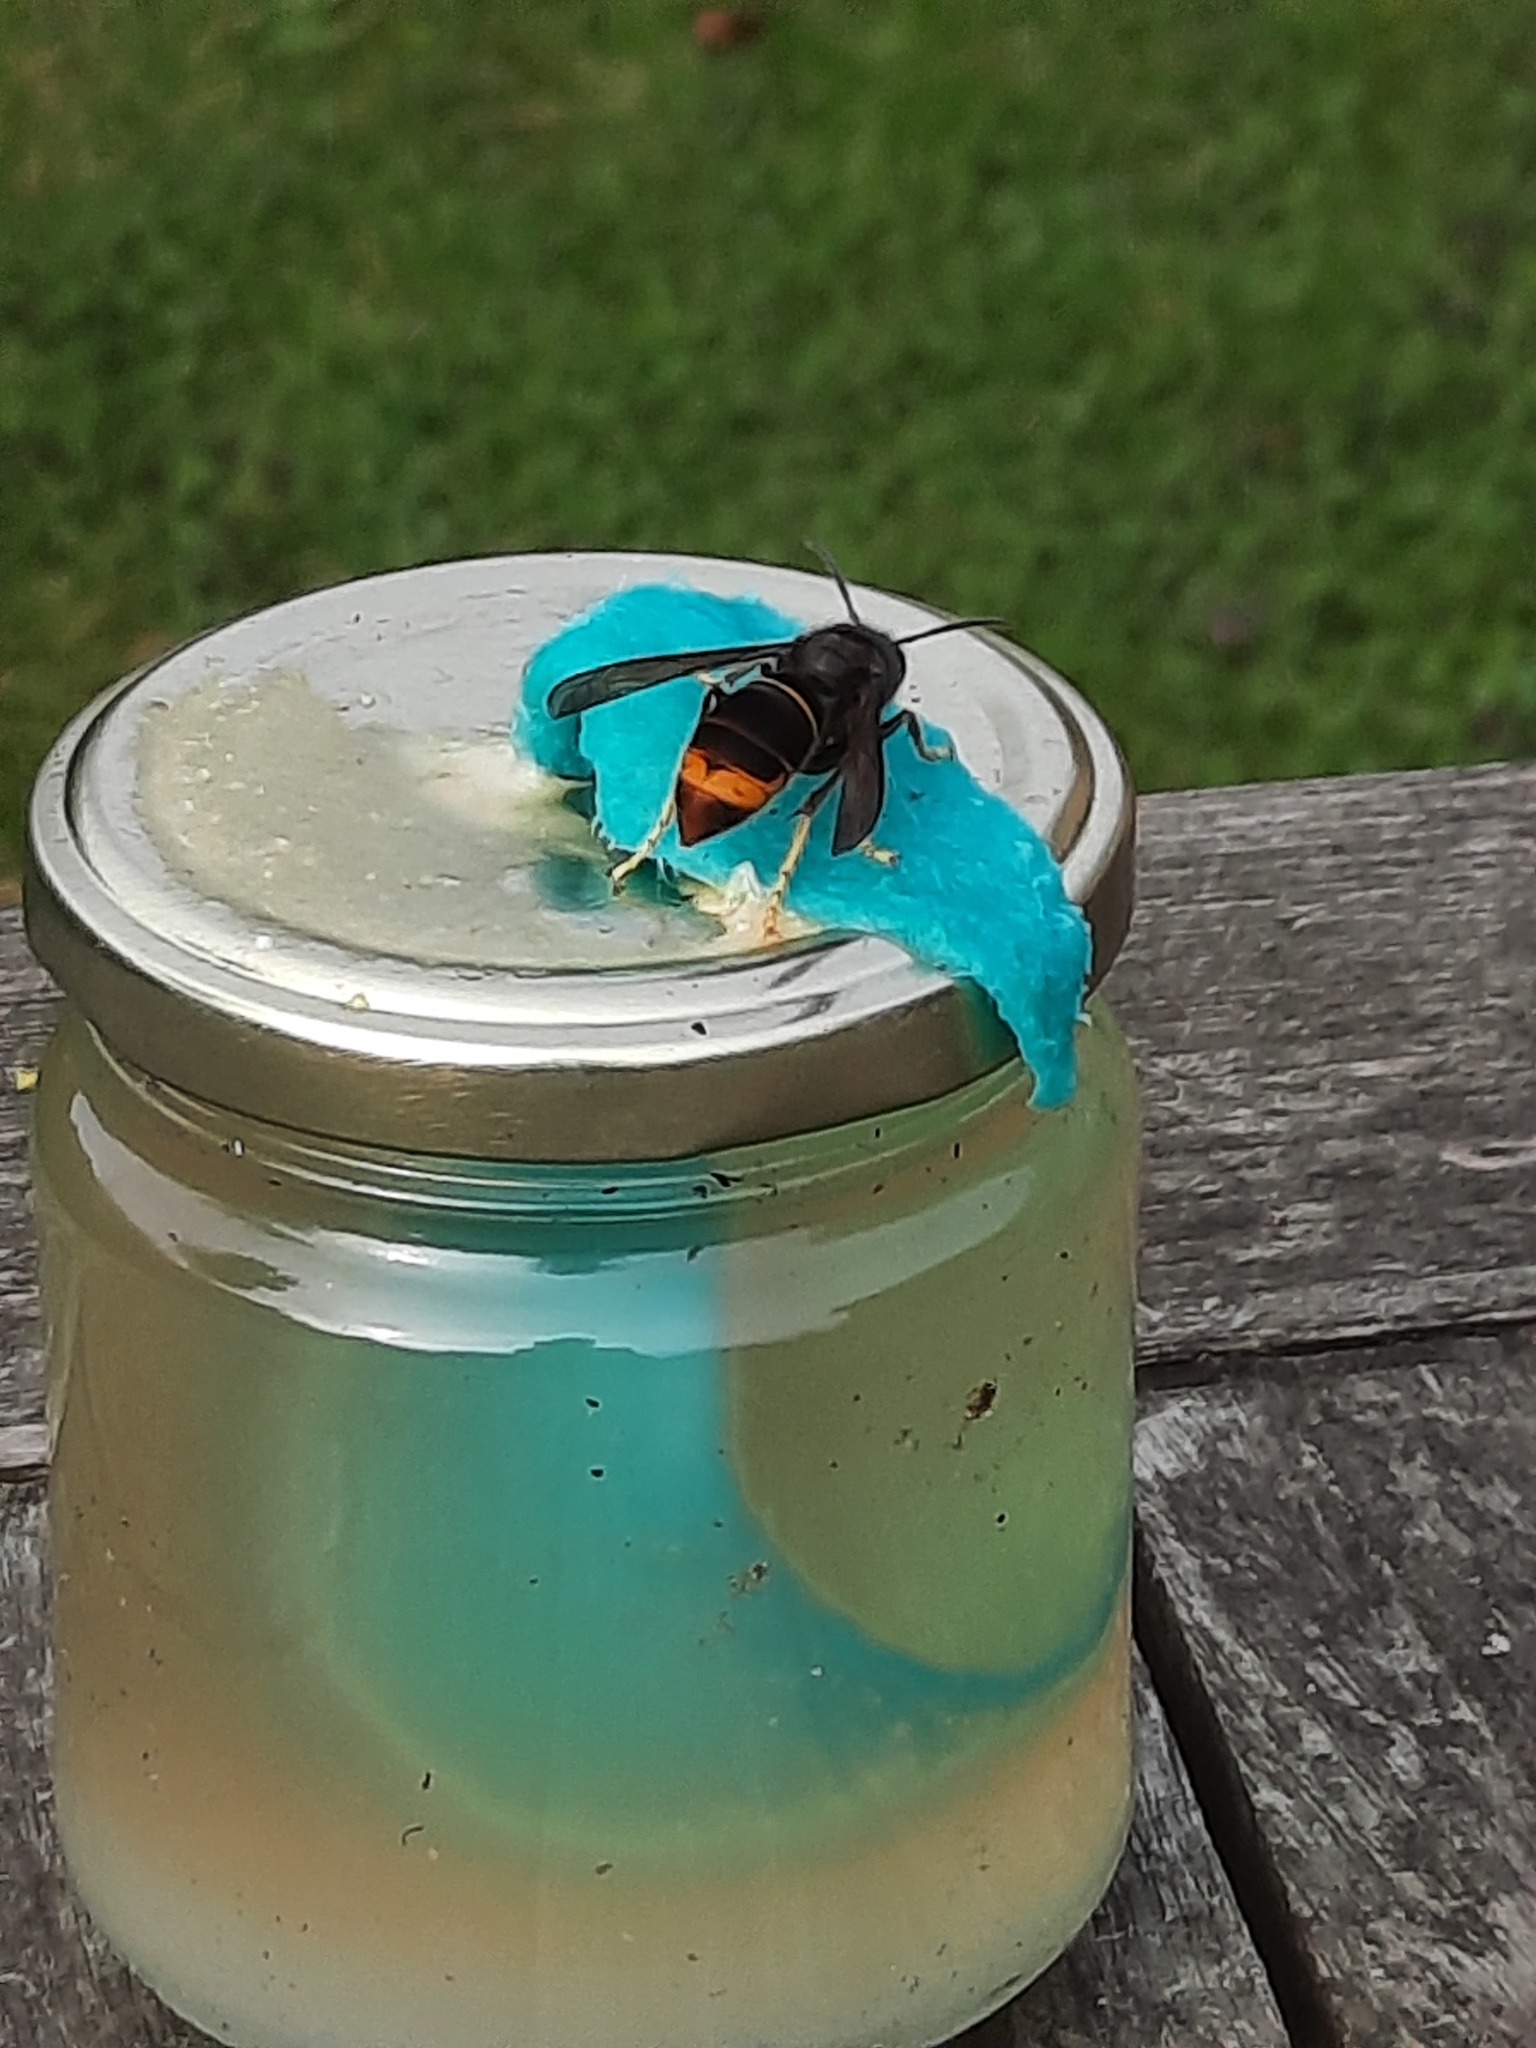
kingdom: Animalia
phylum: Arthropoda
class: Insecta
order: Hymenoptera
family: Vespidae
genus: Vespa
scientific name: Vespa velutina
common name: Asian hornet
